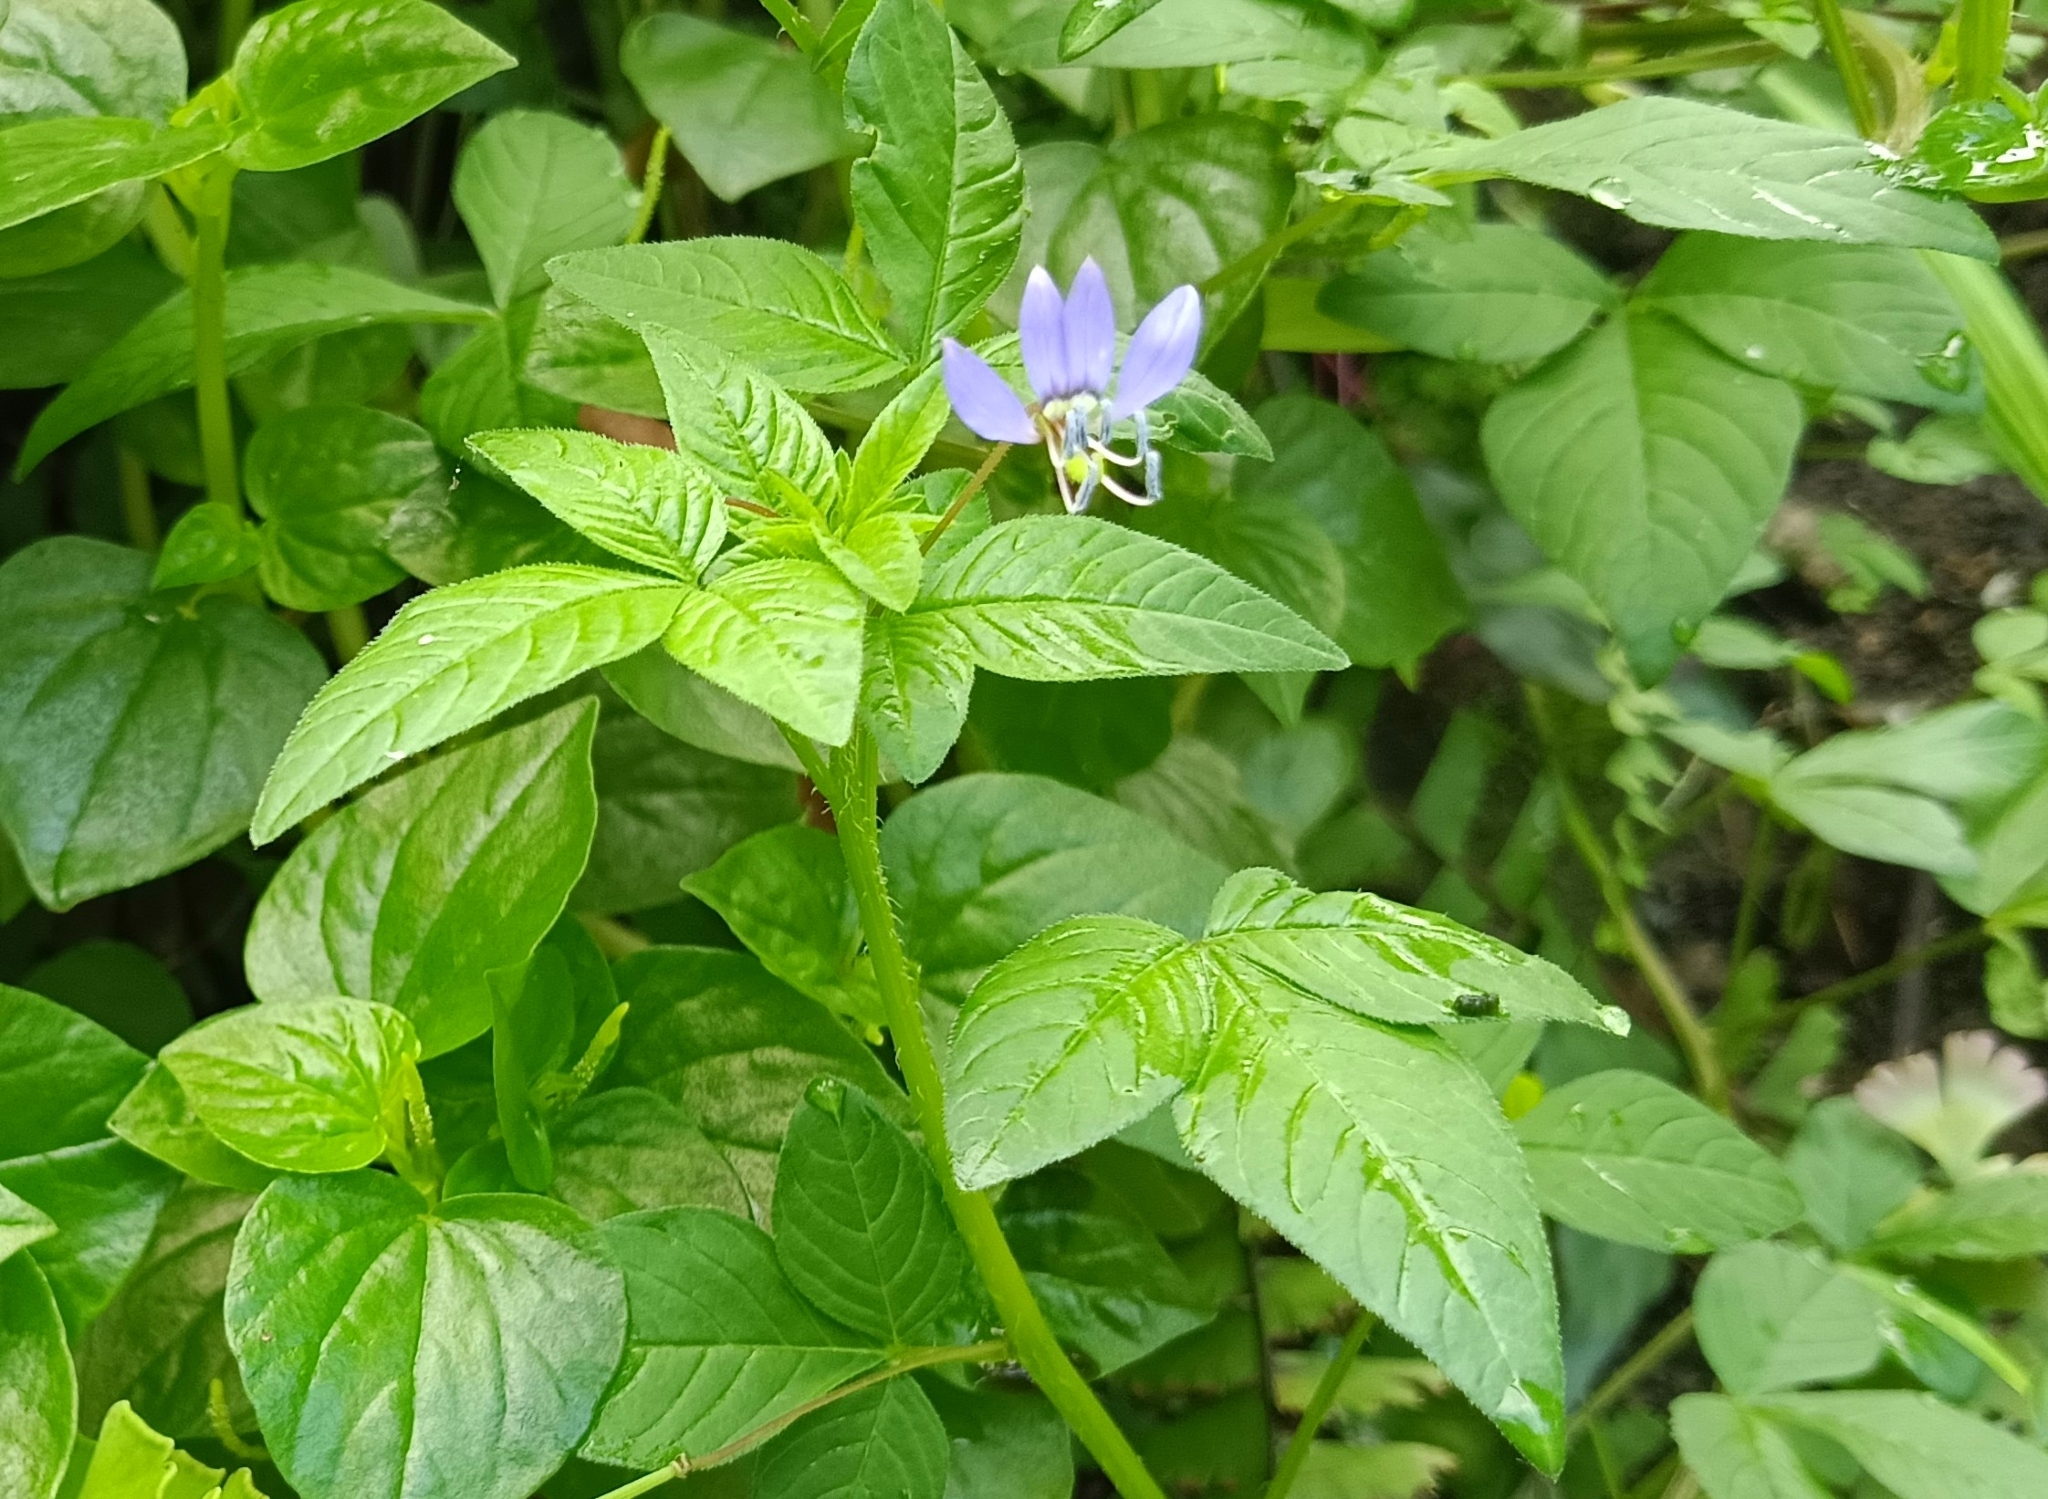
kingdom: Plantae
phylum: Tracheophyta
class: Magnoliopsida
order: Brassicales
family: Cleomaceae
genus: Sieruela
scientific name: Sieruela rutidosperma
